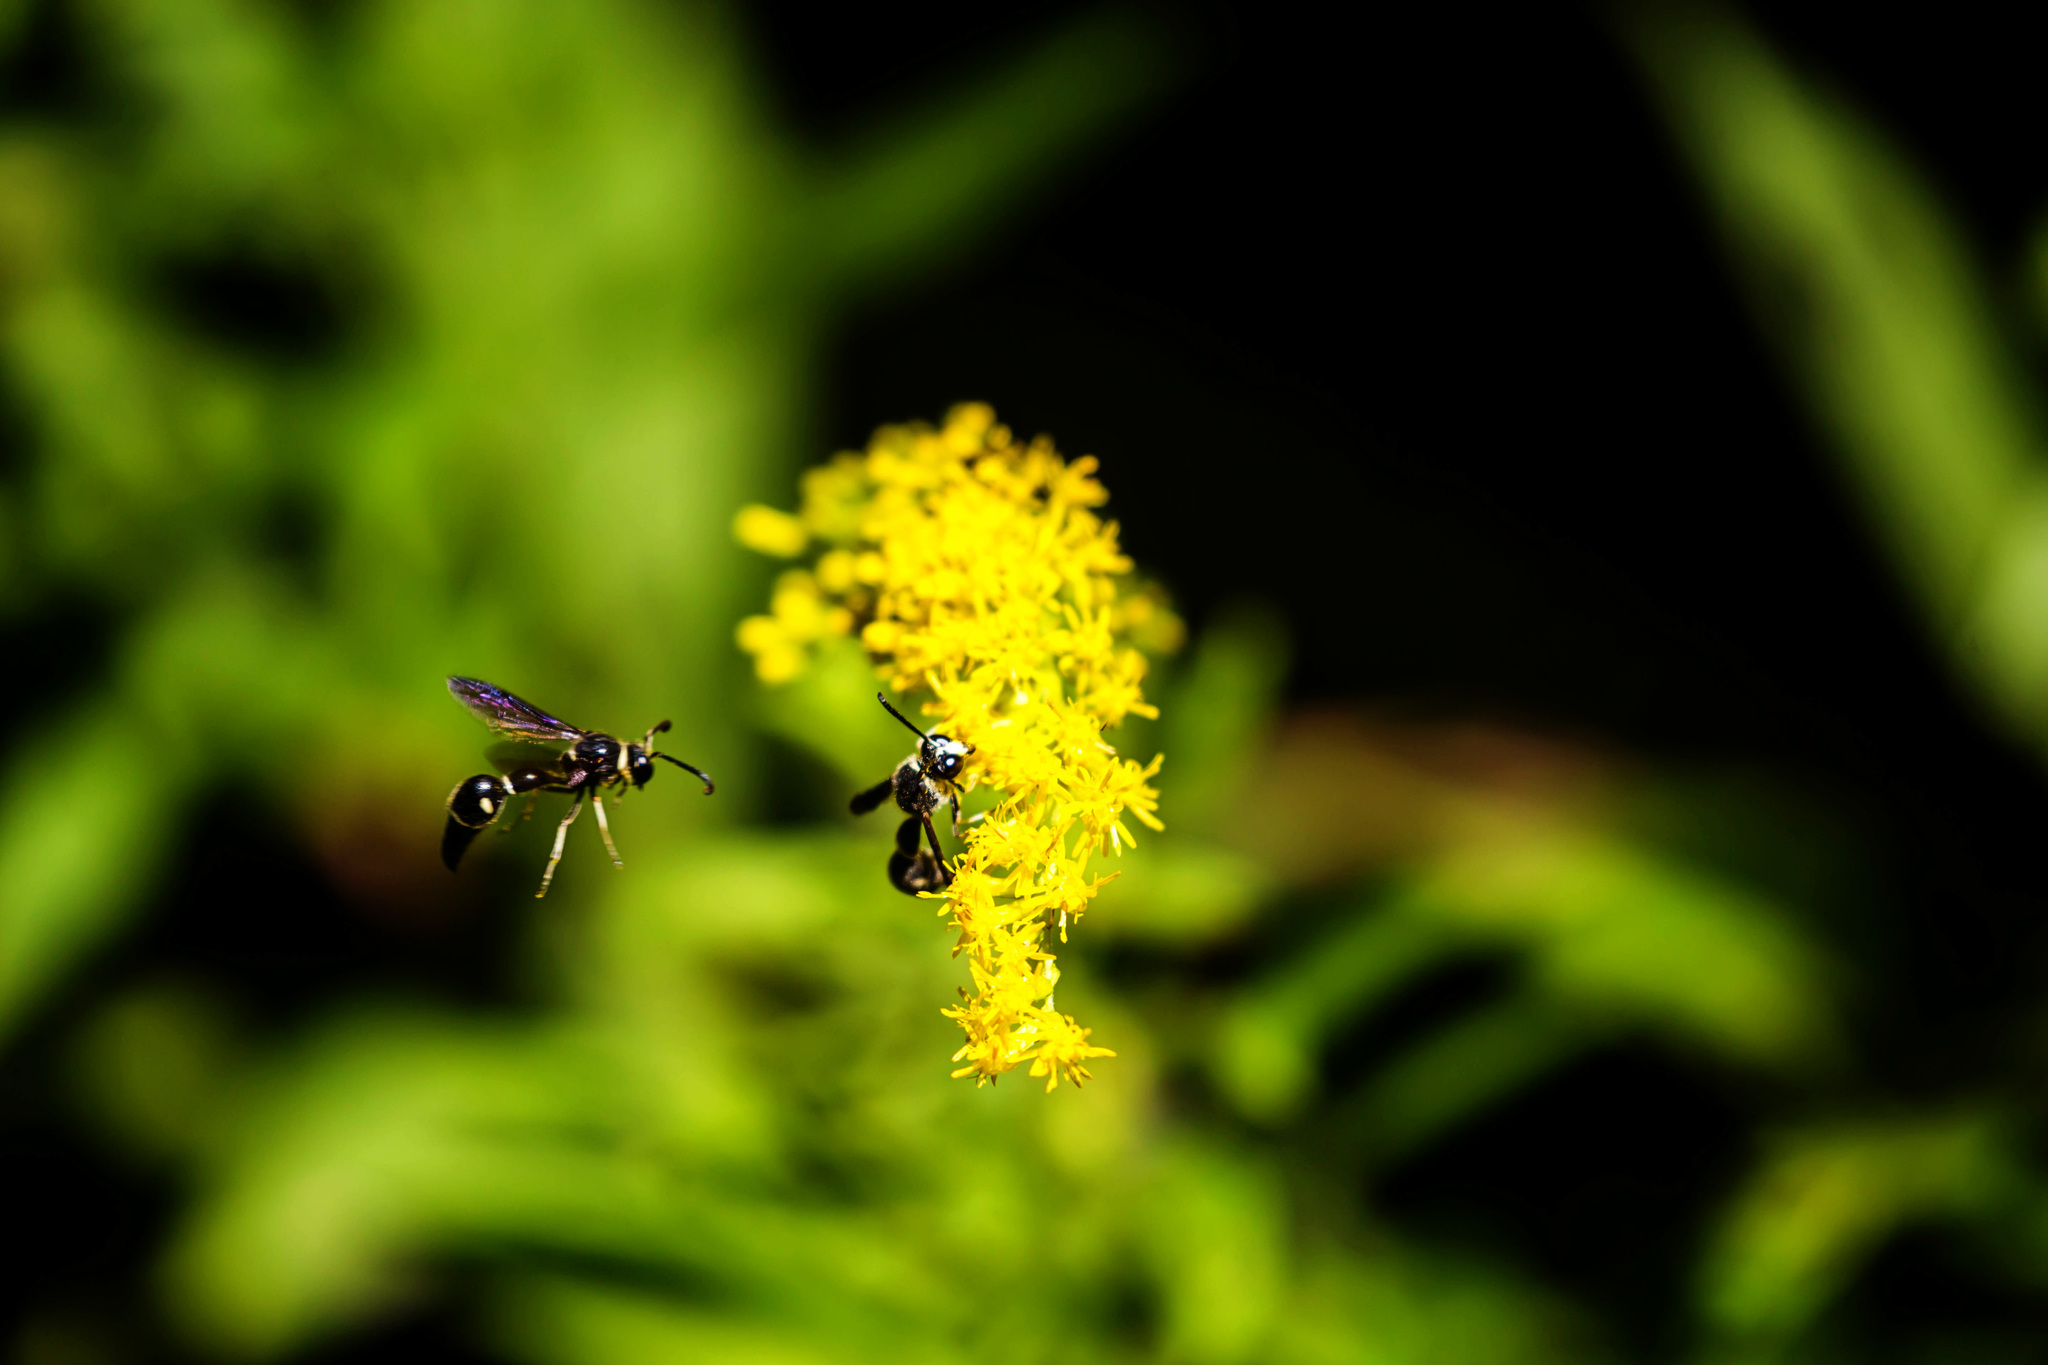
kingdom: Animalia
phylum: Arthropoda
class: Insecta
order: Hymenoptera
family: Vespidae
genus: Eumenes
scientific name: Eumenes fraternus
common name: Fraternal potter wasp
